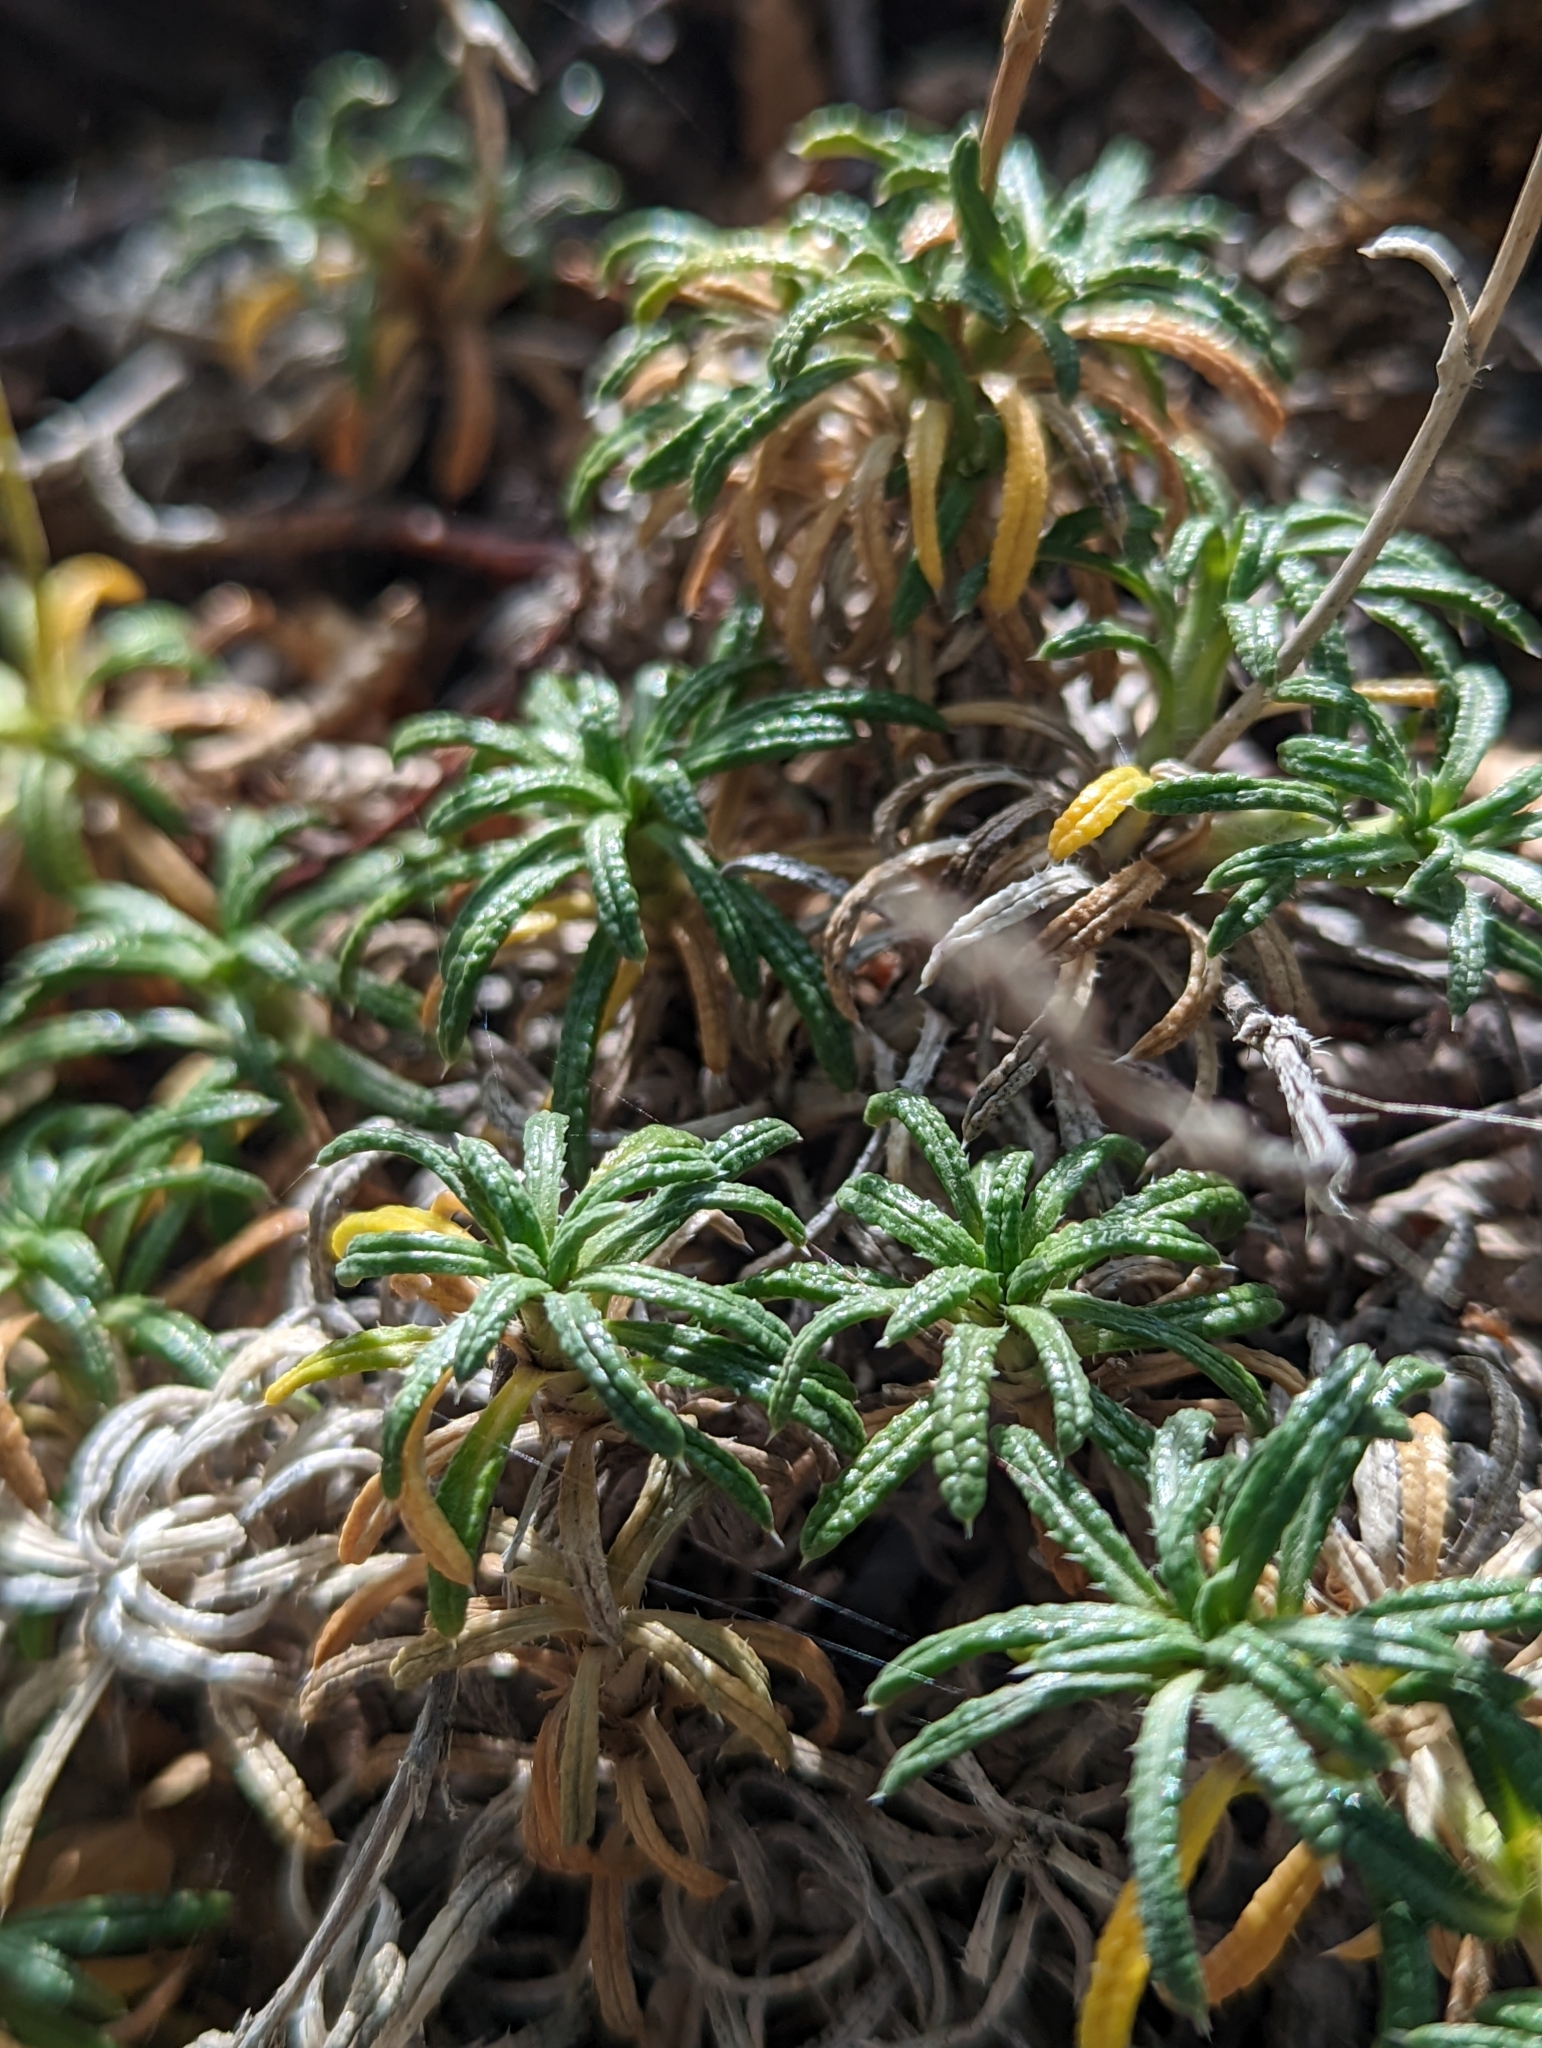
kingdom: Plantae
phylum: Tracheophyta
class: Magnoliopsida
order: Asterales
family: Asteraceae
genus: Perezia
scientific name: Perezia recurvata
